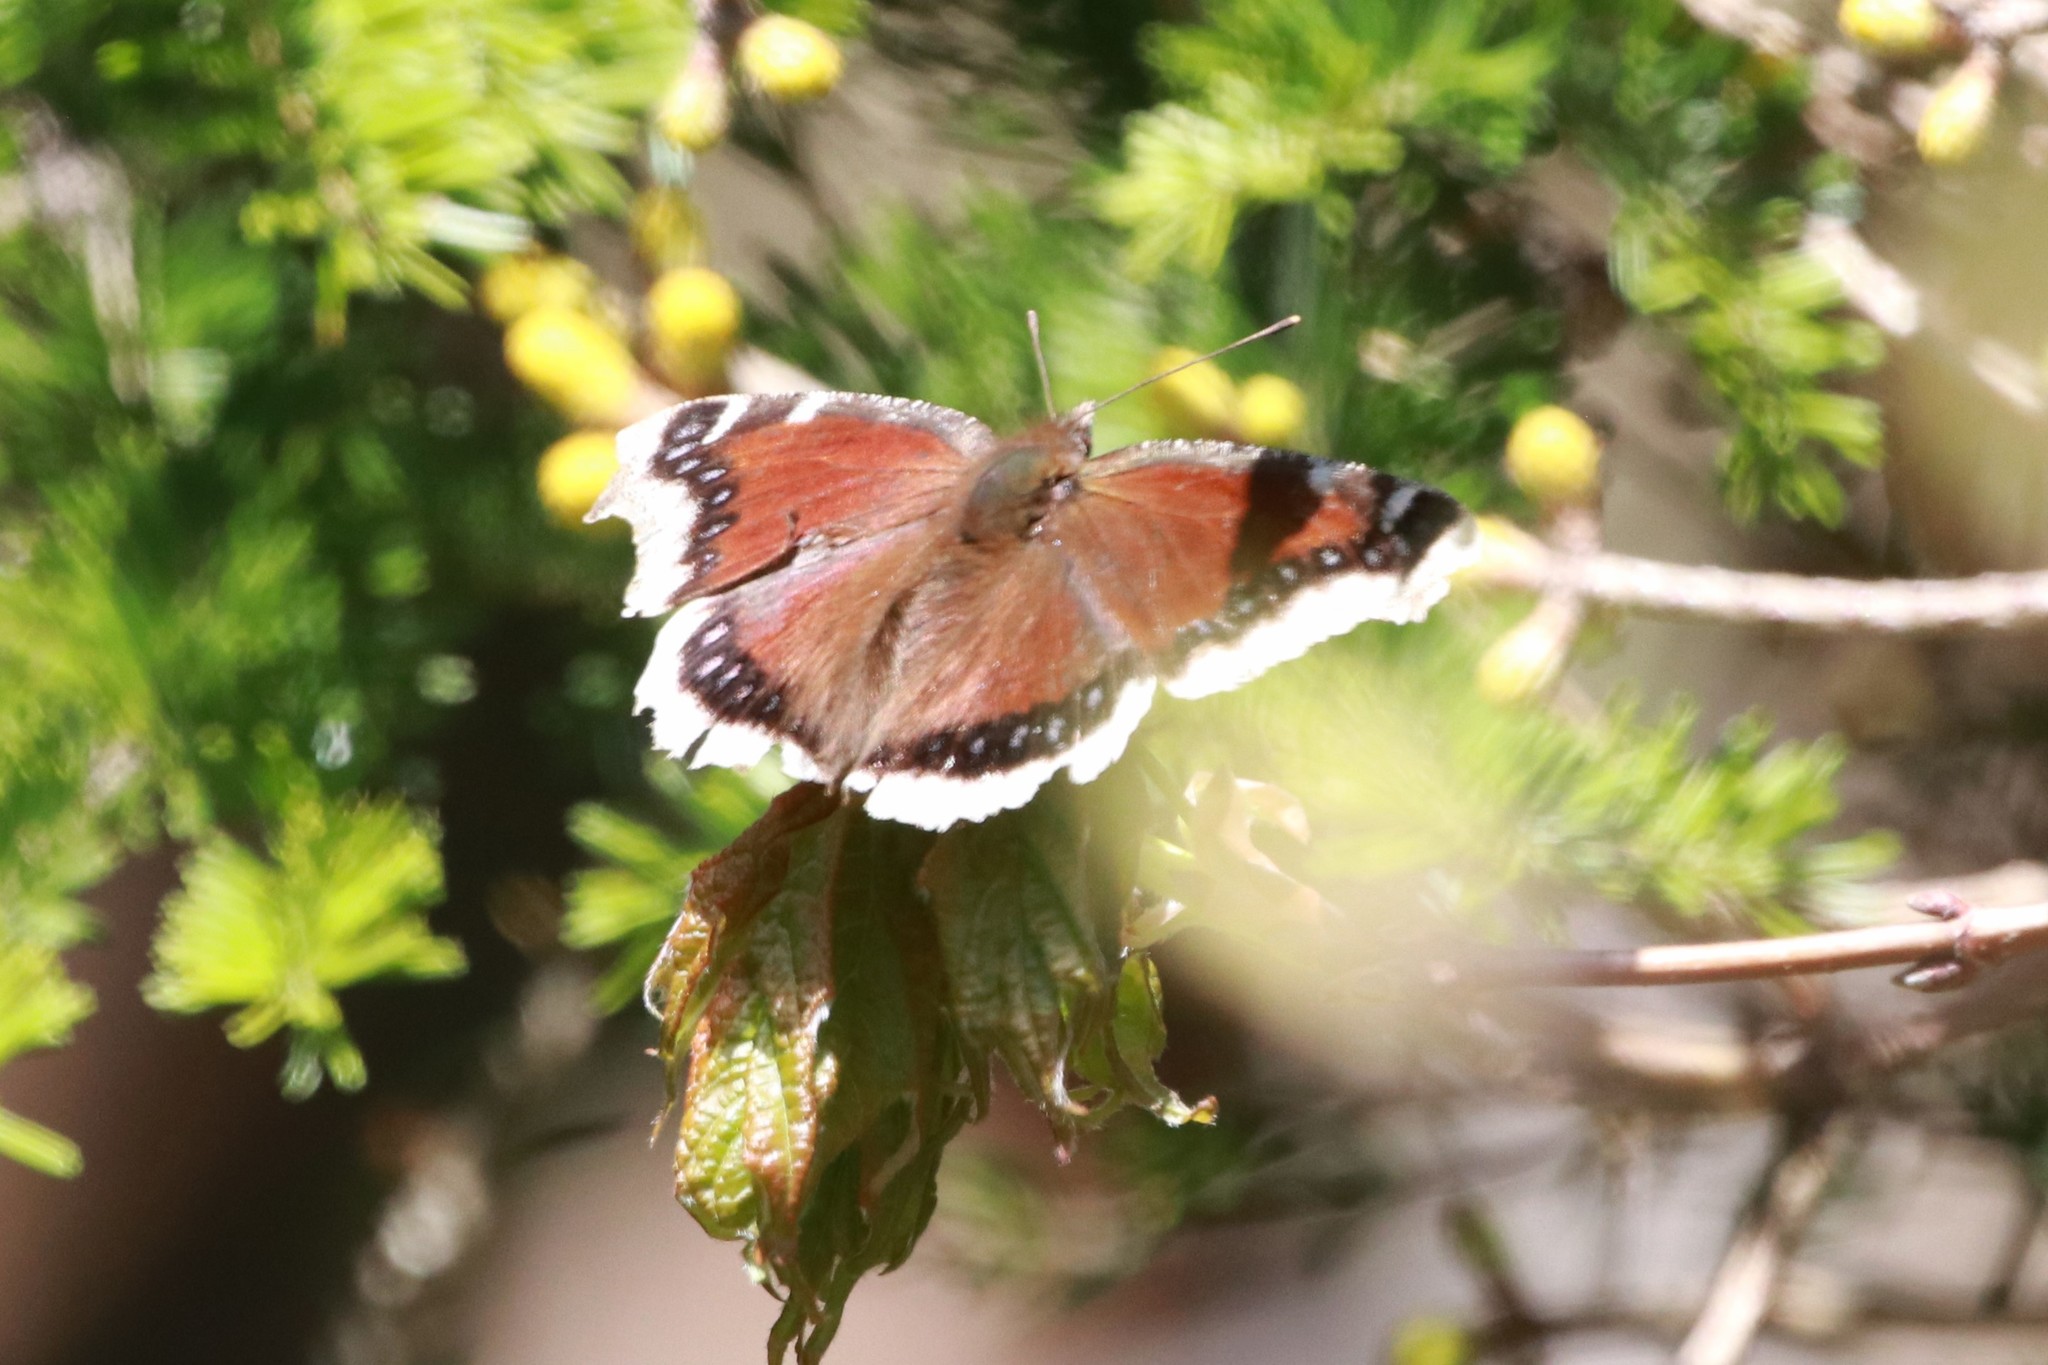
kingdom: Animalia
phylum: Arthropoda
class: Insecta
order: Lepidoptera
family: Nymphalidae
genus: Nymphalis
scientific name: Nymphalis antiopa
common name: Camberwell beauty
